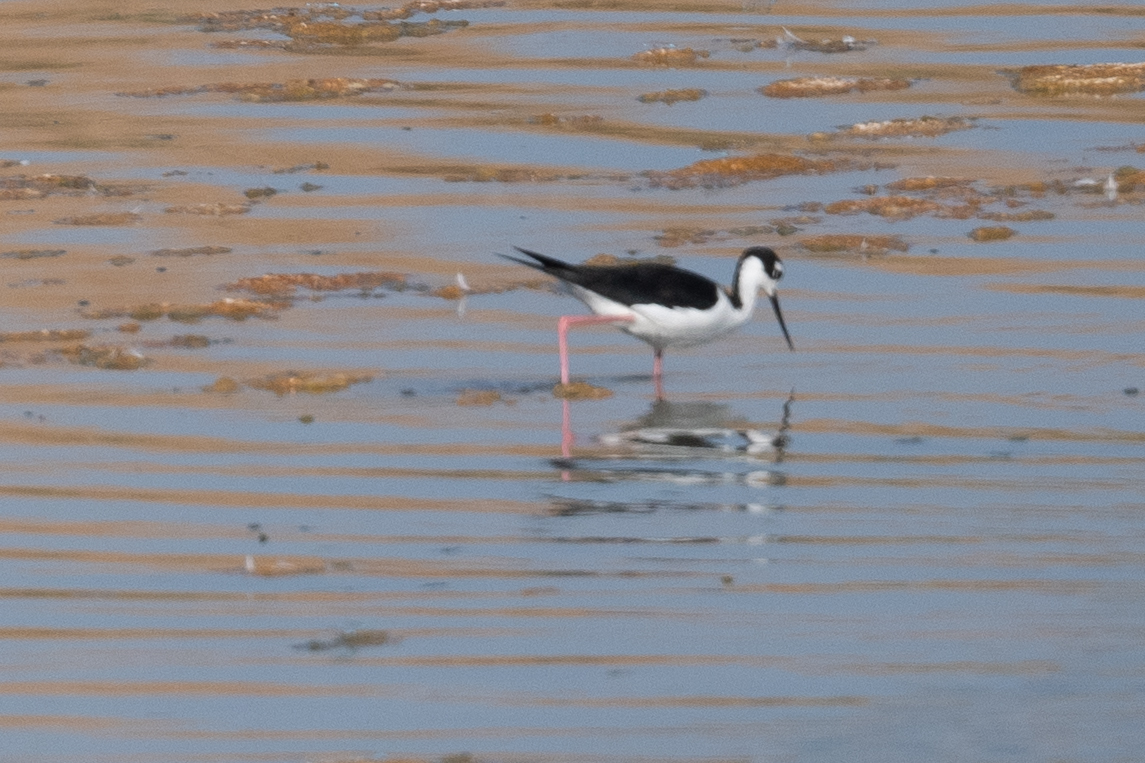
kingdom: Animalia
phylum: Chordata
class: Aves
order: Charadriiformes
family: Recurvirostridae
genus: Himantopus
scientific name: Himantopus mexicanus
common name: Black-necked stilt
